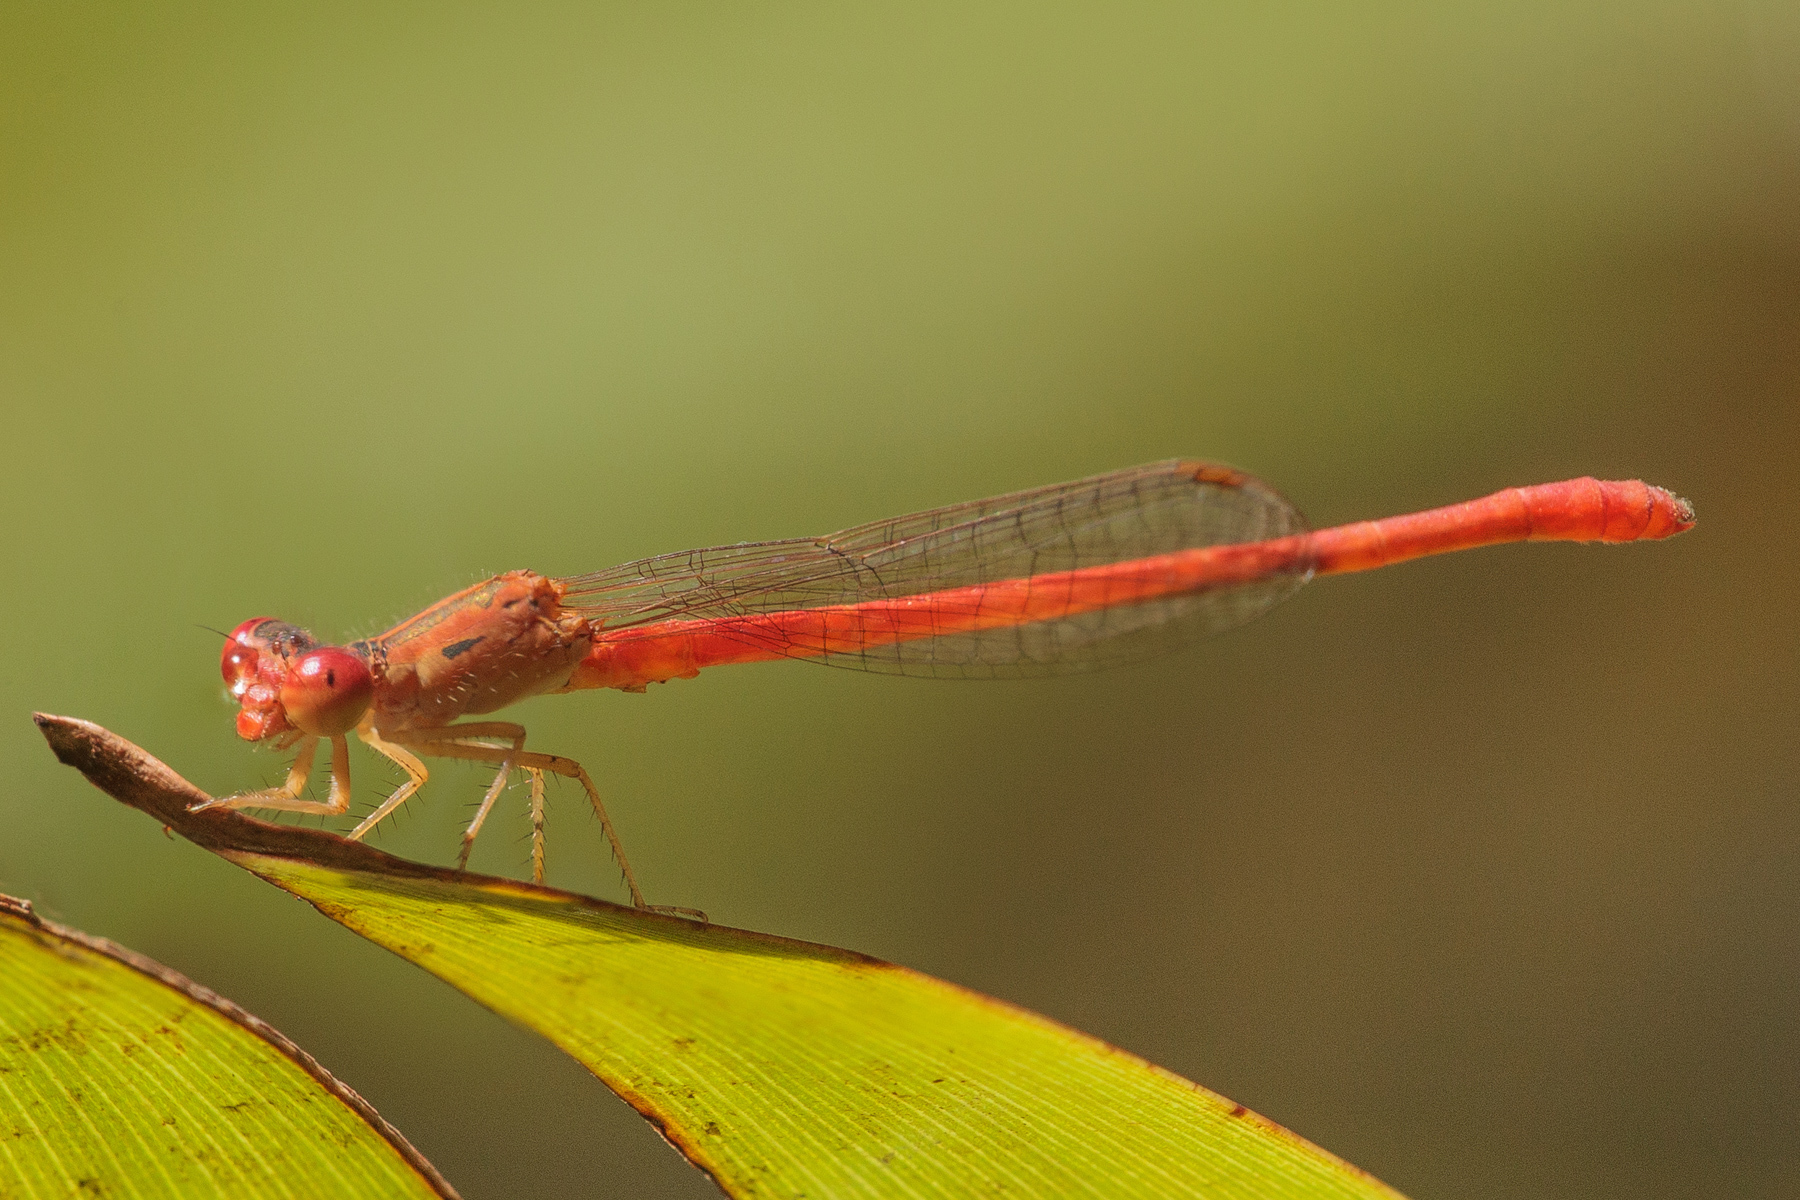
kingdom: Animalia
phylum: Arthropoda
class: Insecta
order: Odonata
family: Coenagrionidae
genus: Telebasis
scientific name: Telebasis salva
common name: Desert firetail
